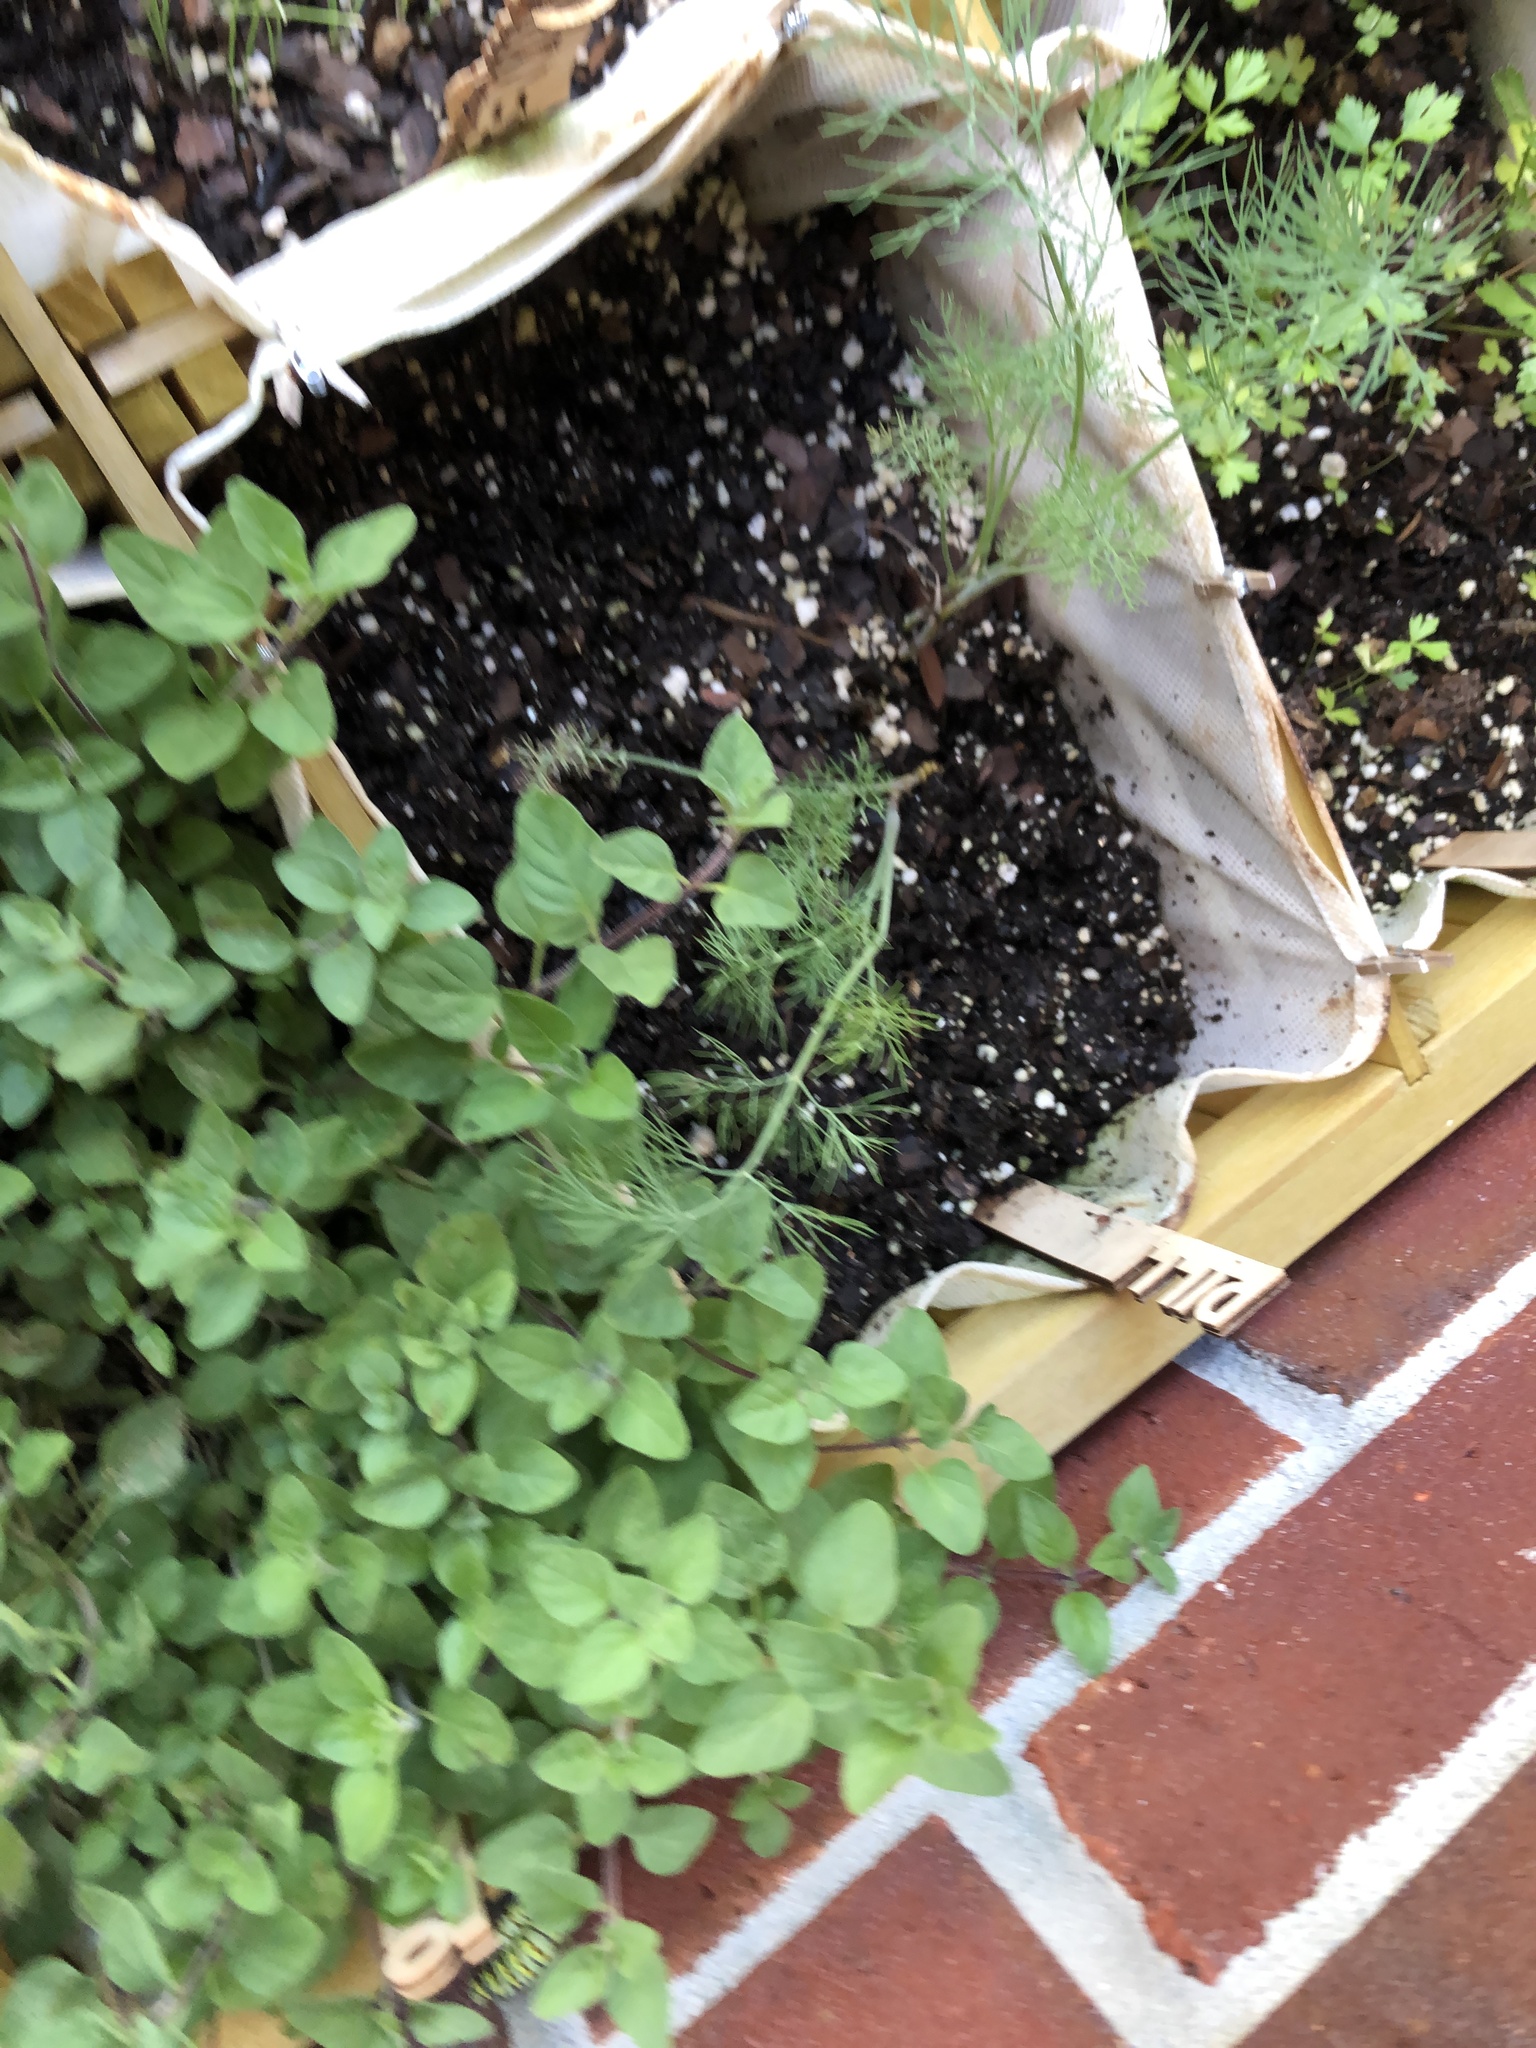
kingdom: Animalia
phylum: Arthropoda
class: Insecta
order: Diptera
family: Ulidiidae
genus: Delphinia
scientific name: Delphinia picta
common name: Common picture-winged fly
